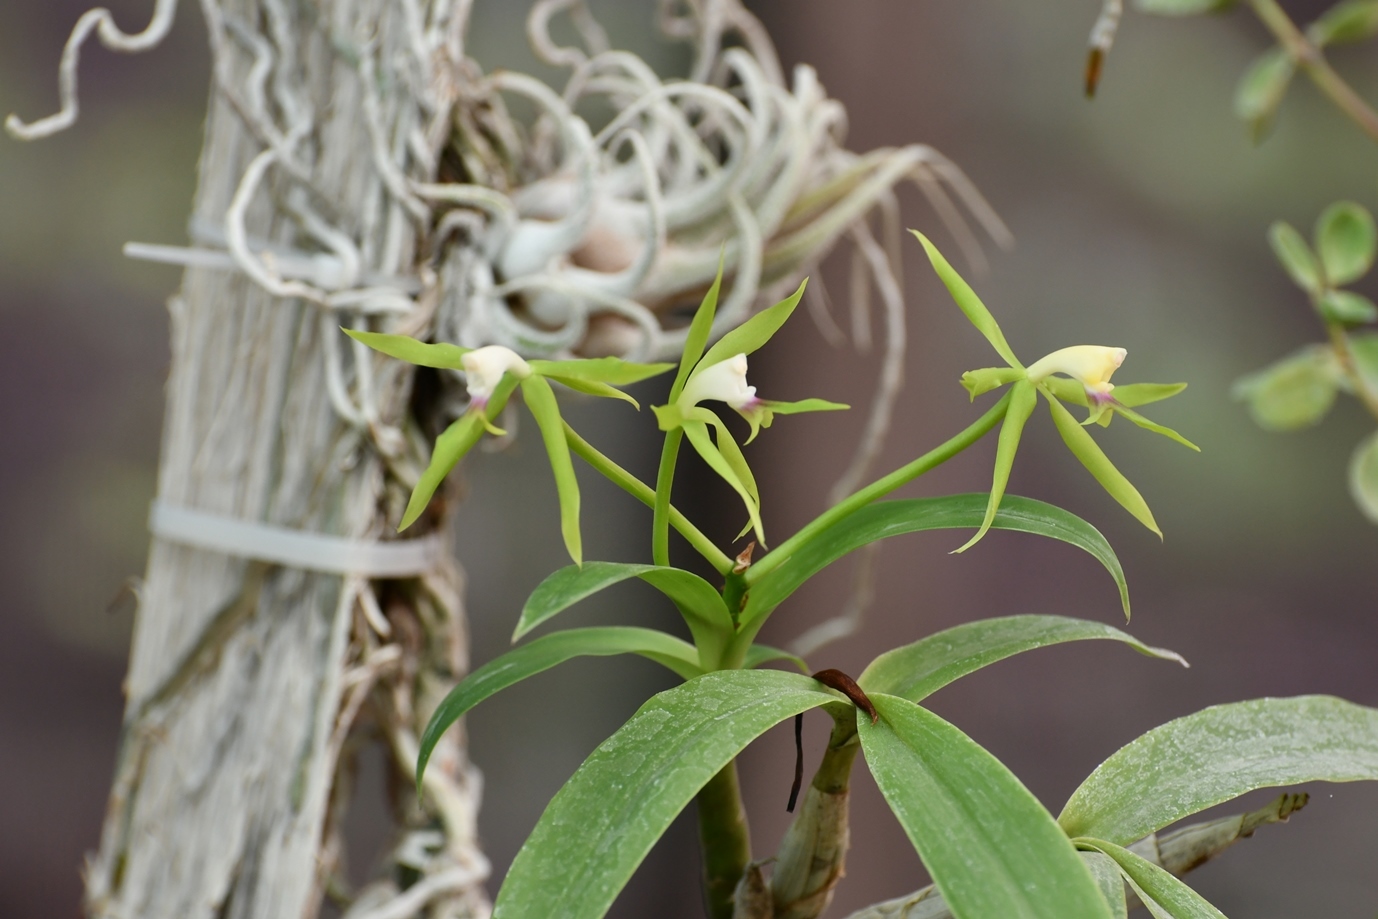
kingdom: Plantae
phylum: Tracheophyta
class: Liliopsida
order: Asparagales
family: Orchidaceae
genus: Epidendrum
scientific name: Epidendrum lacertinum
